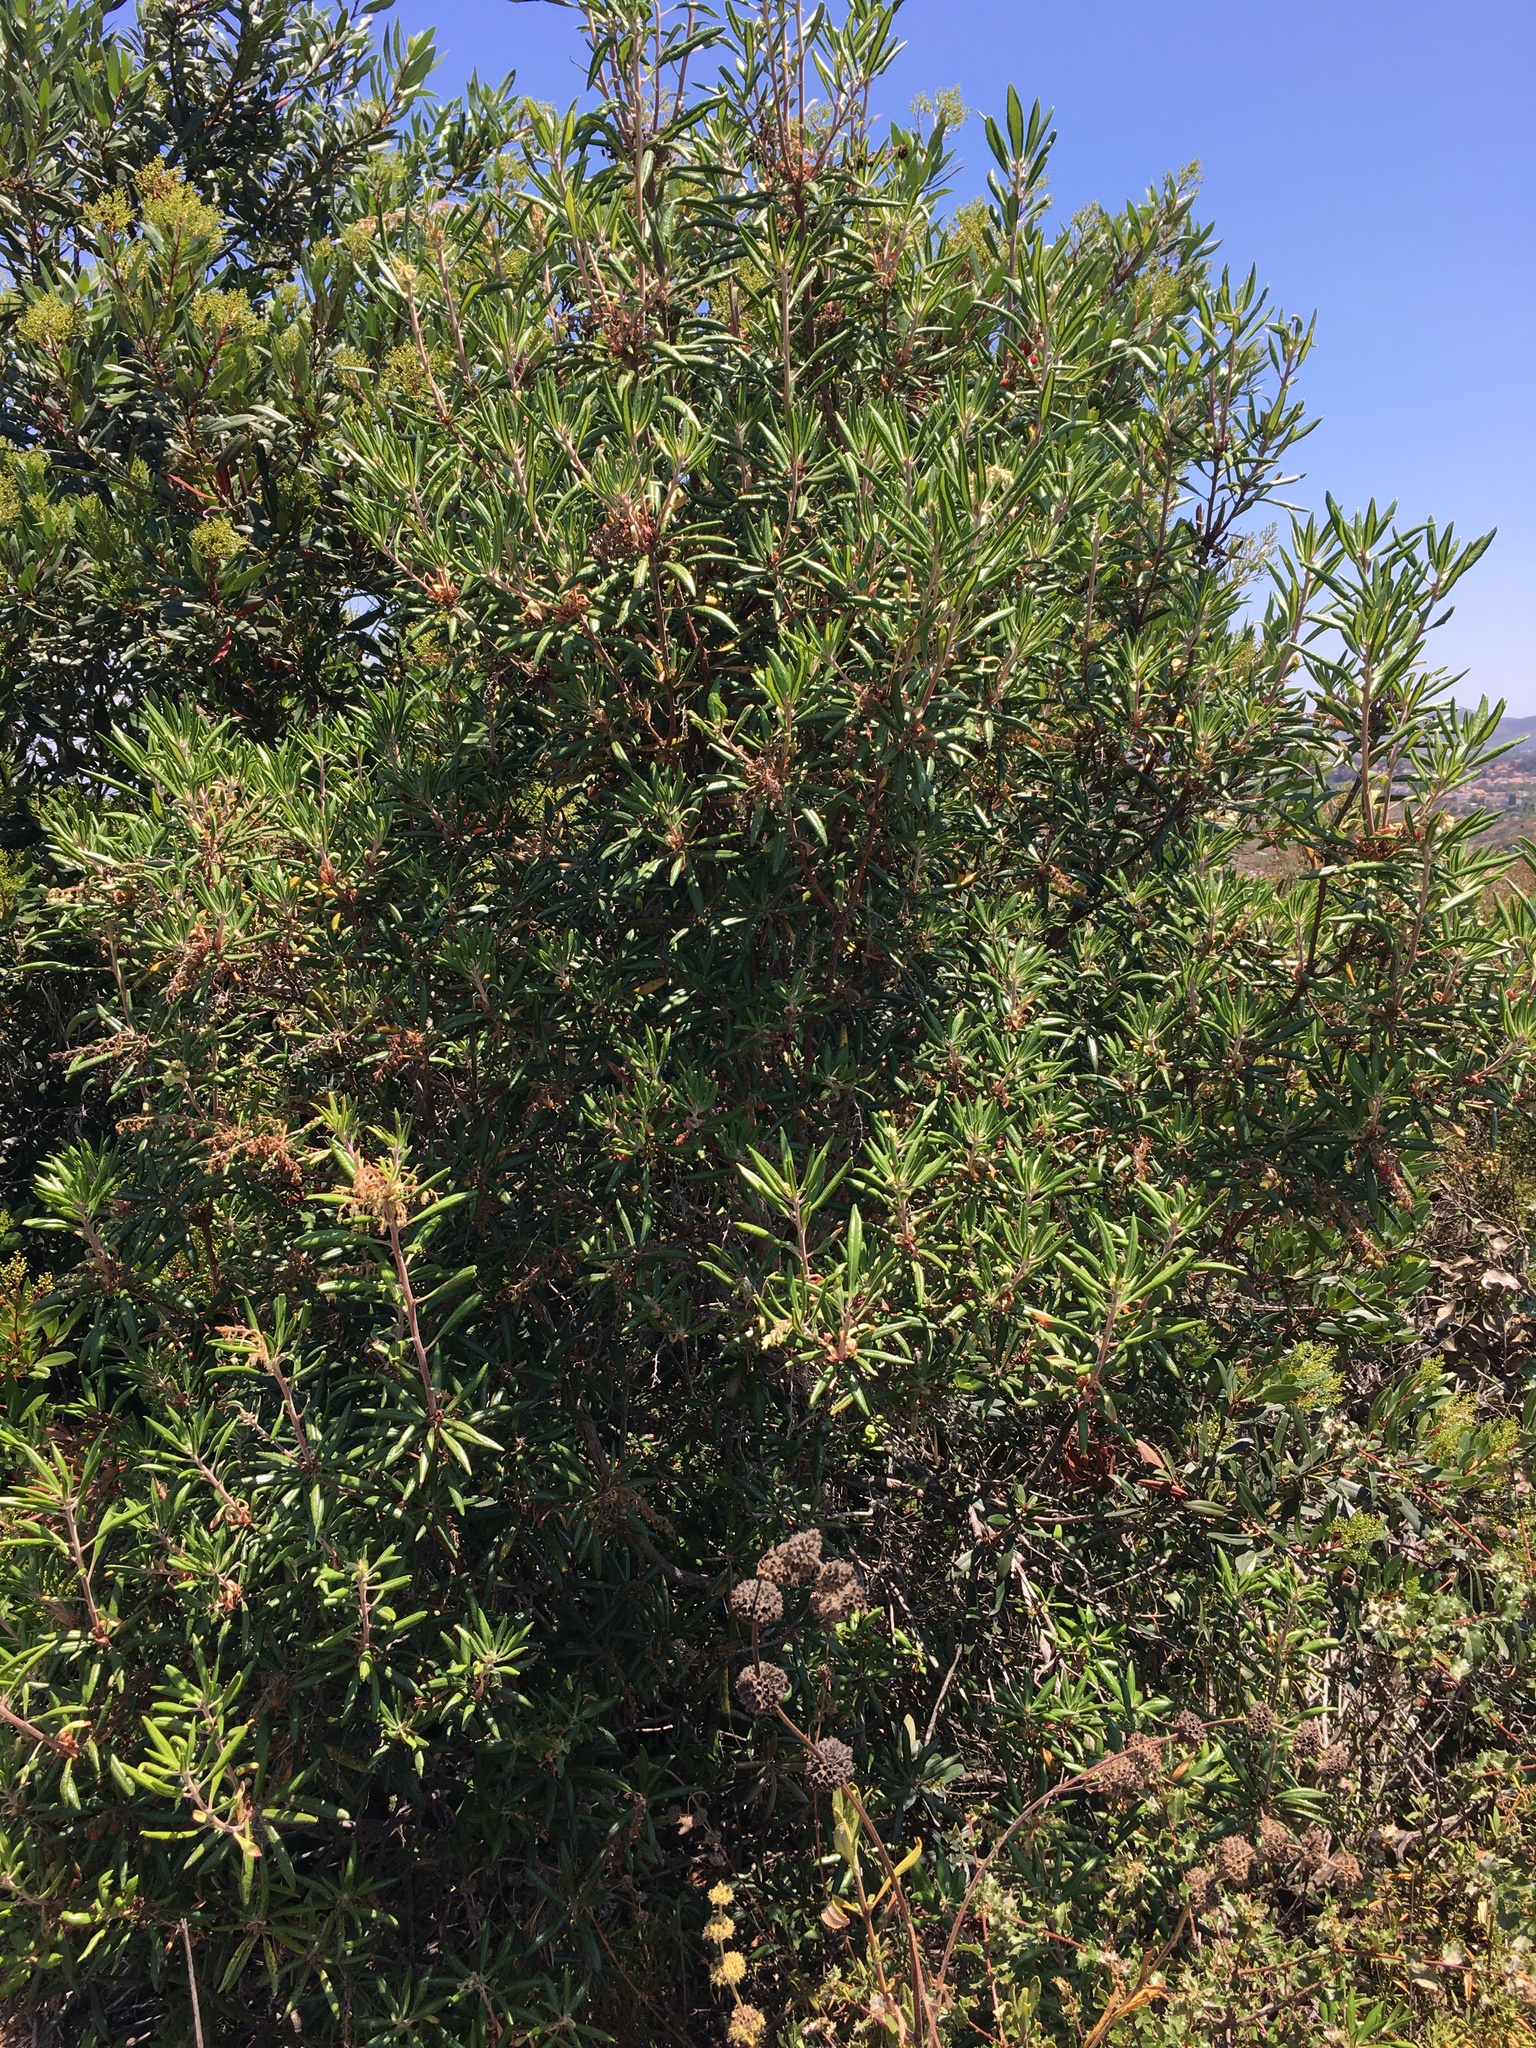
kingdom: Plantae
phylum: Tracheophyta
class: Magnoliopsida
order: Ericales
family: Ericaceae
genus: Comarostaphylis
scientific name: Comarostaphylis diversifolia
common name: Summer-holly
